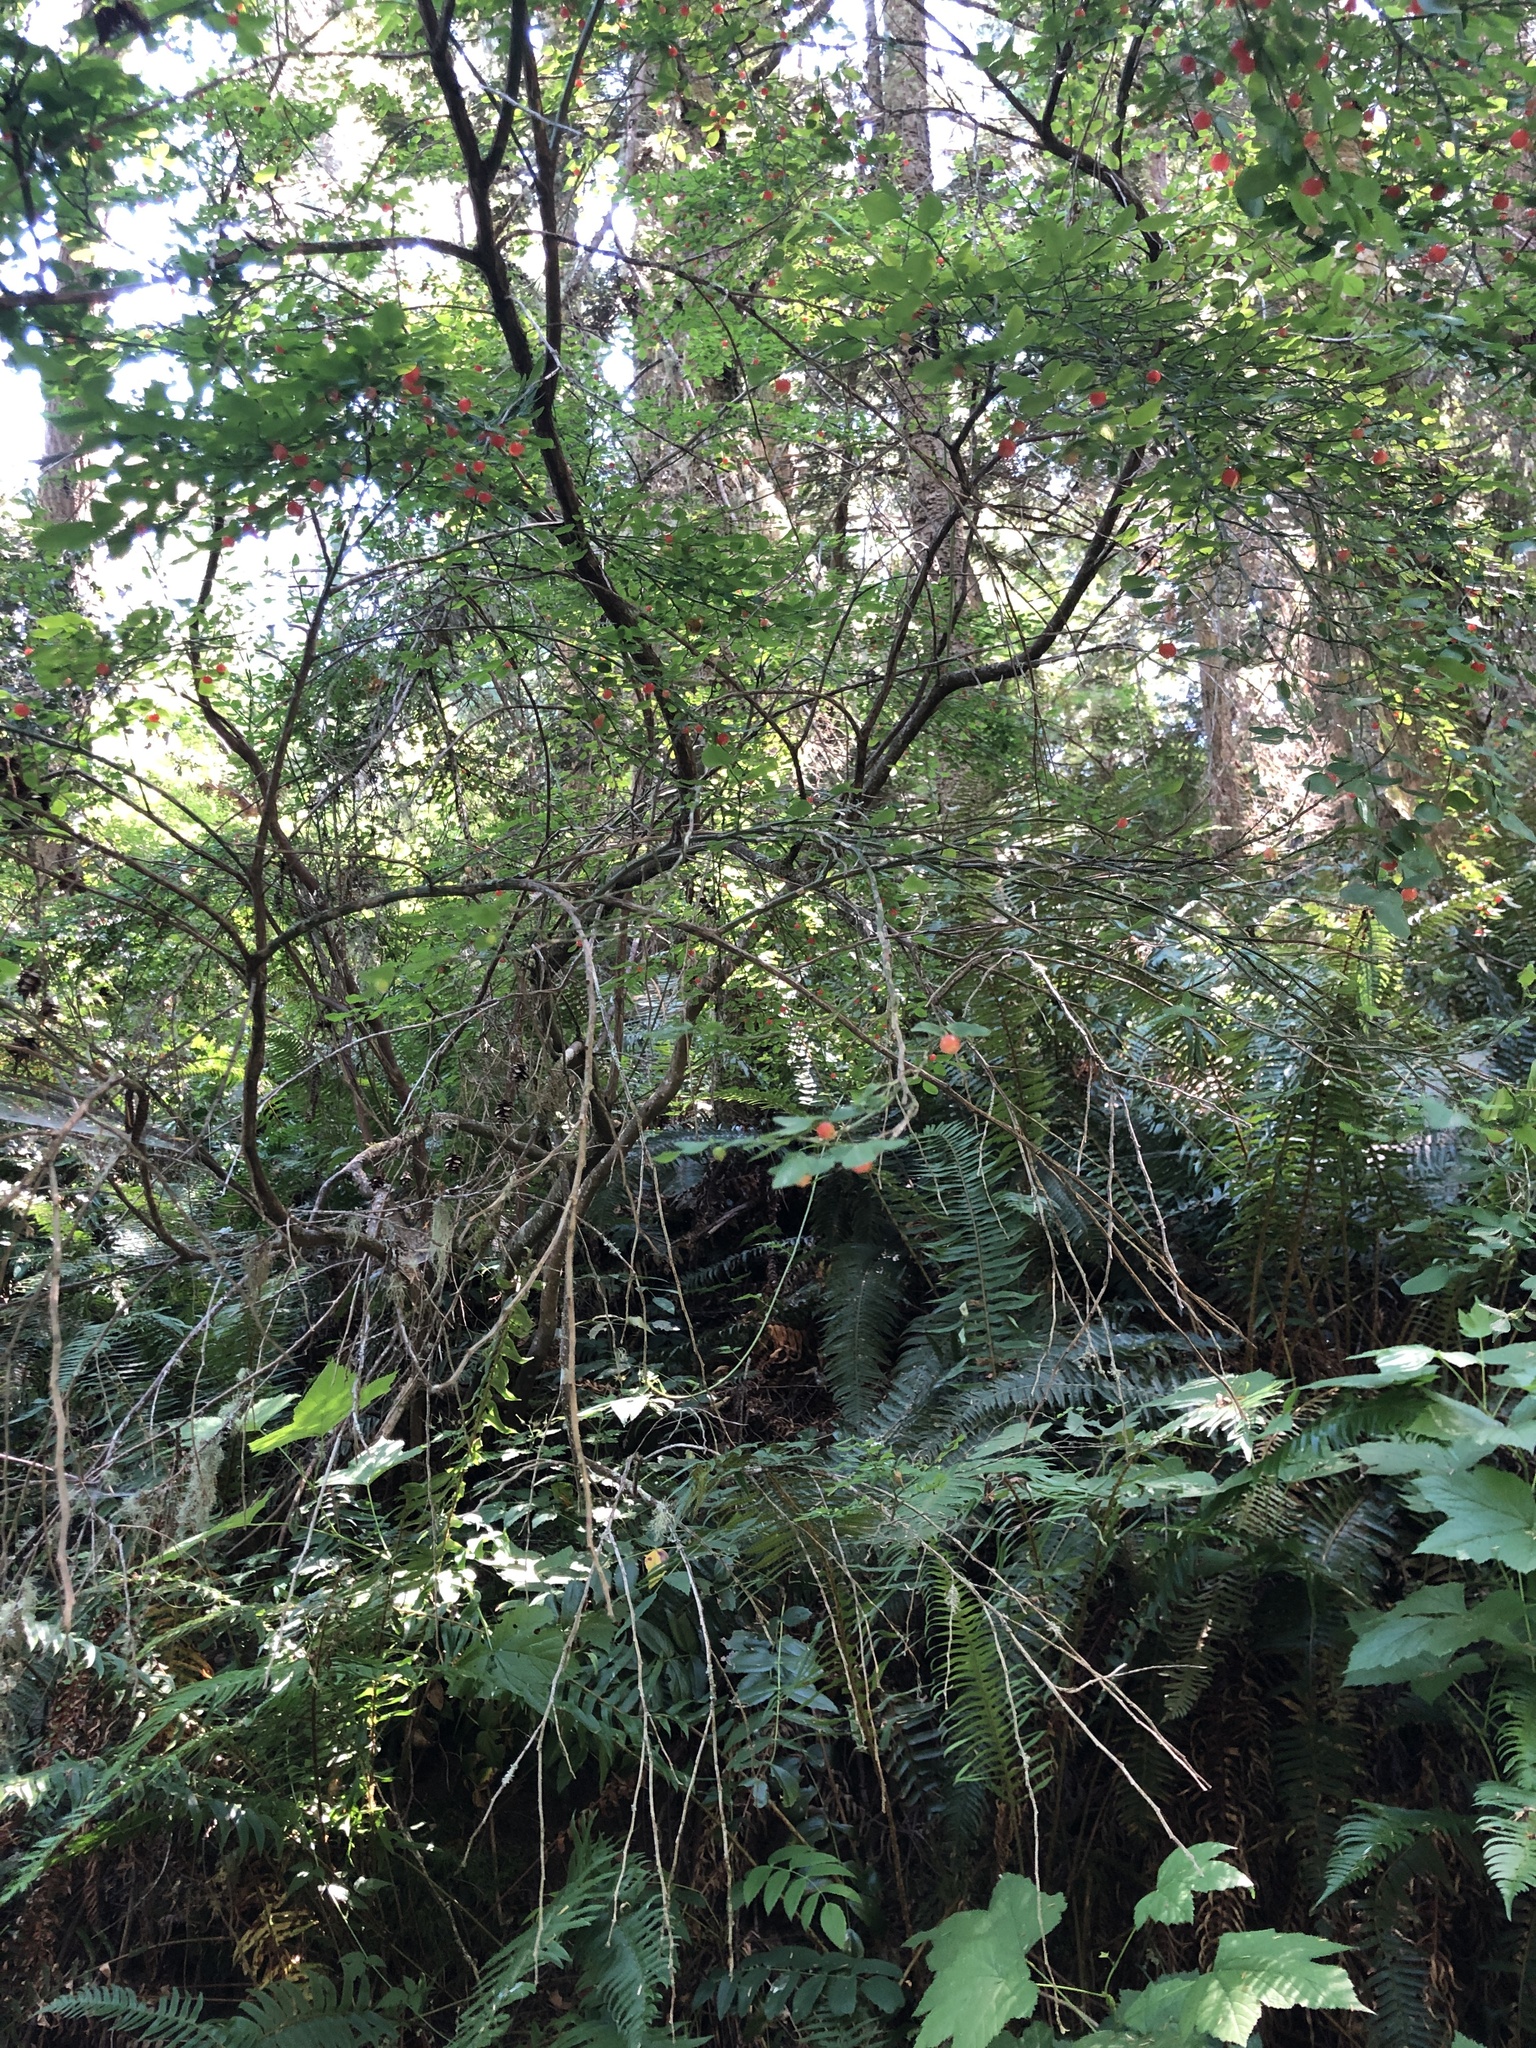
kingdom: Plantae
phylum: Tracheophyta
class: Magnoliopsida
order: Ericales
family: Ericaceae
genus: Vaccinium
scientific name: Vaccinium parvifolium
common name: Red-huckleberry
